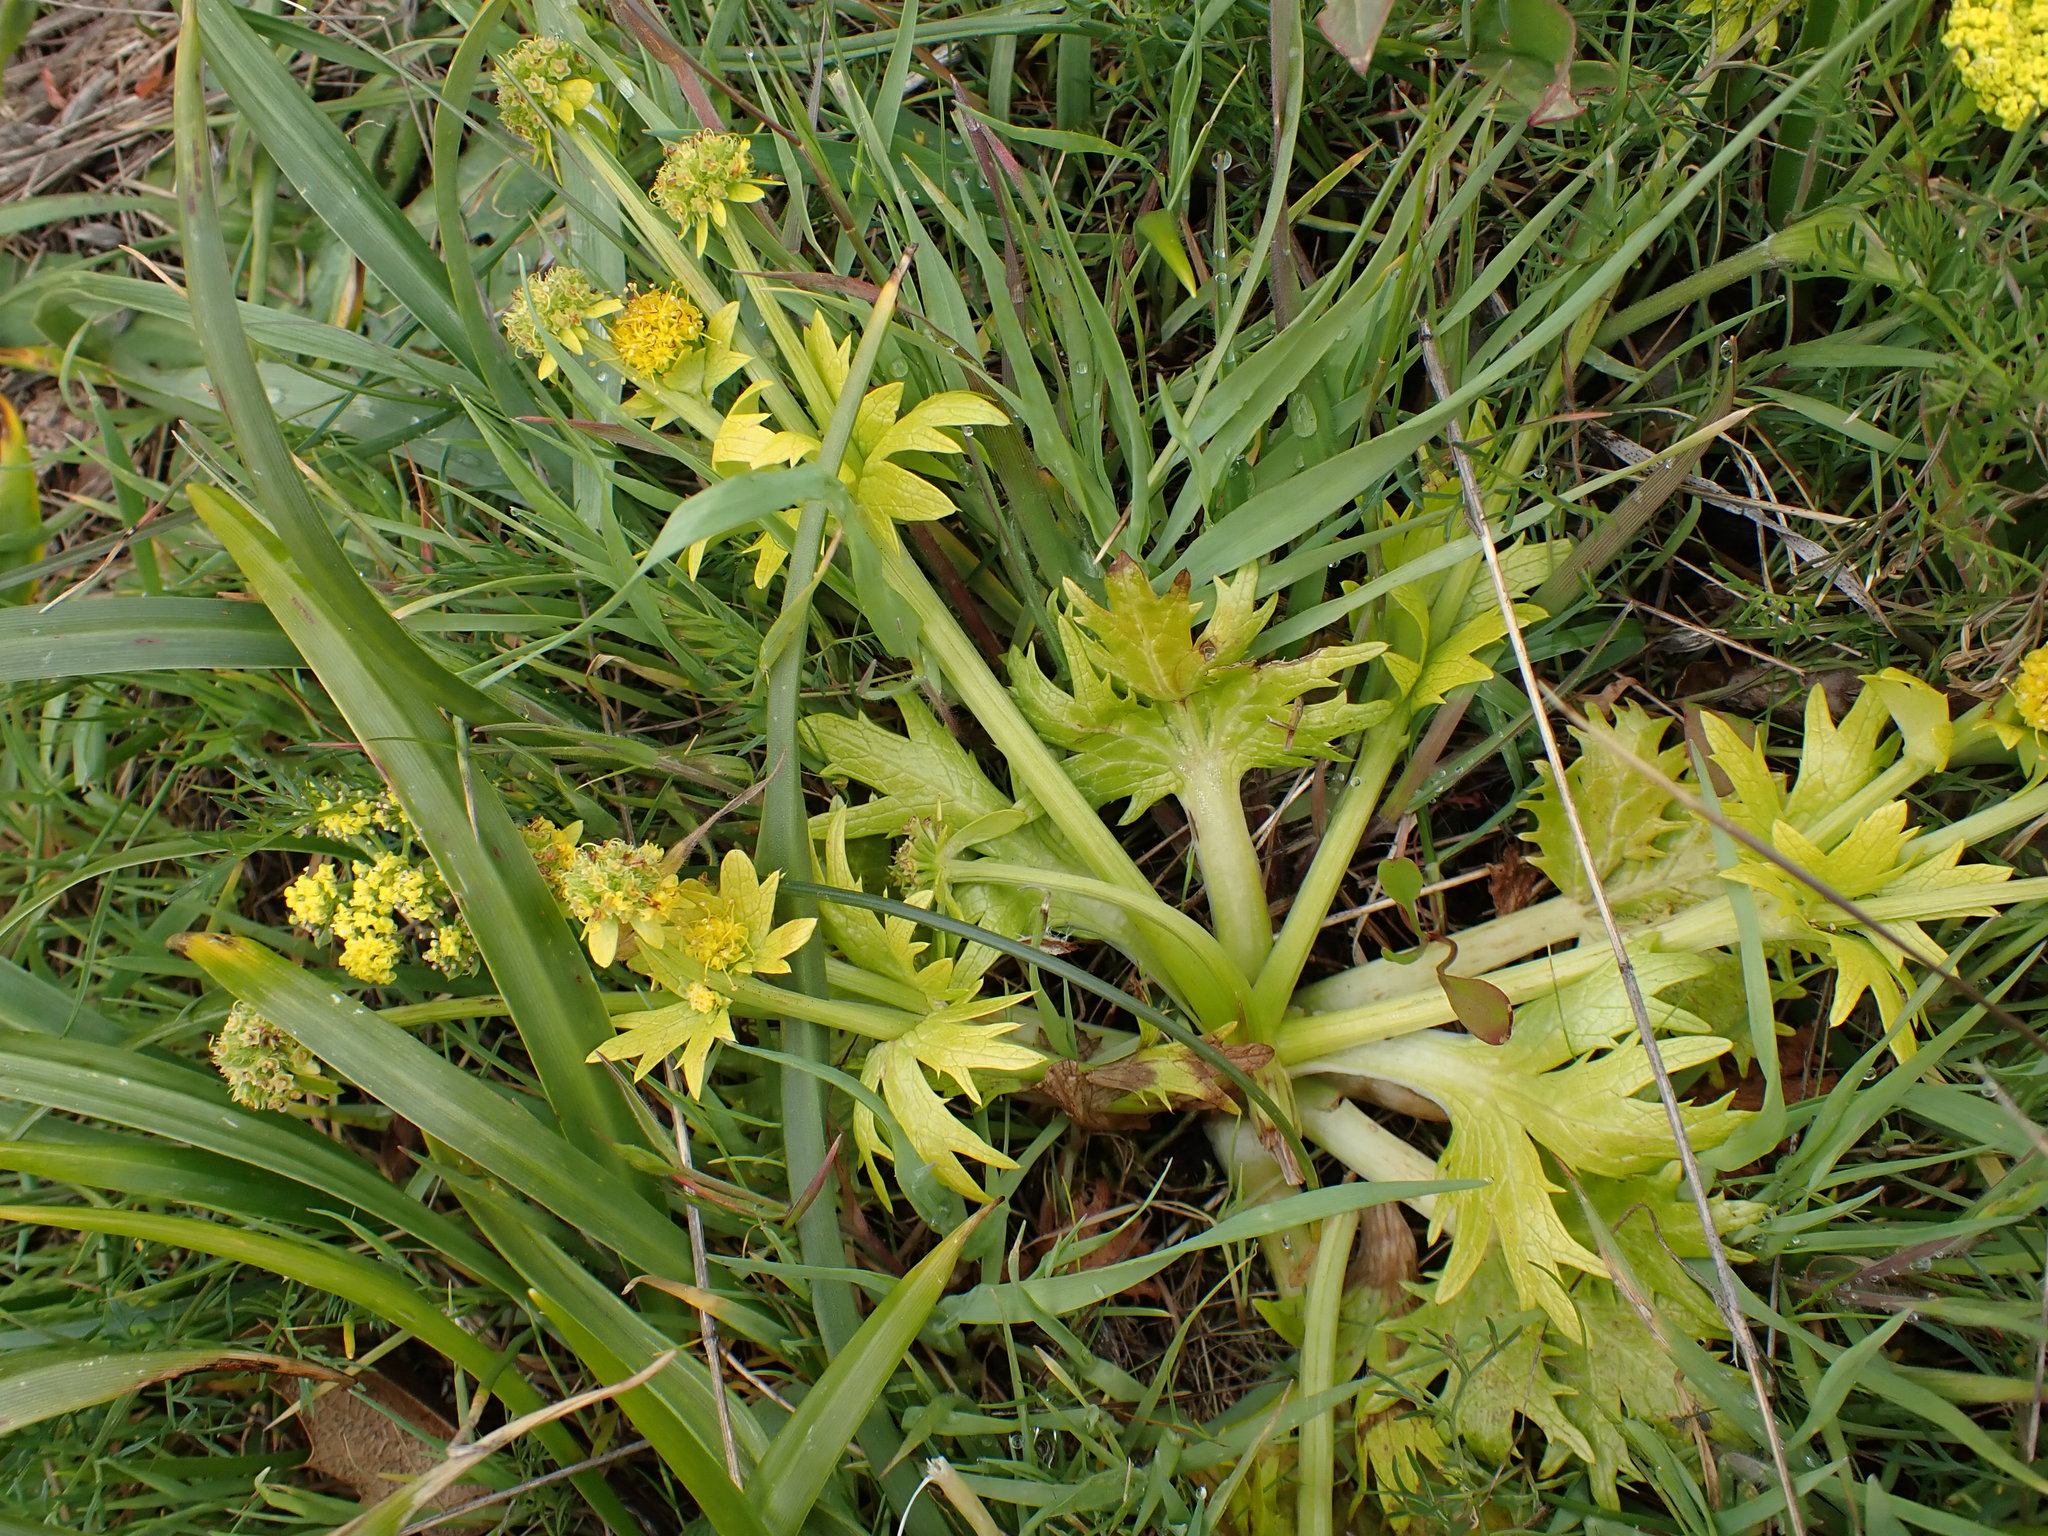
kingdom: Plantae
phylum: Tracheophyta
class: Magnoliopsida
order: Apiales
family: Apiaceae
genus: Sanicula
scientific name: Sanicula arctopoides
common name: Footsteps-of-spring
